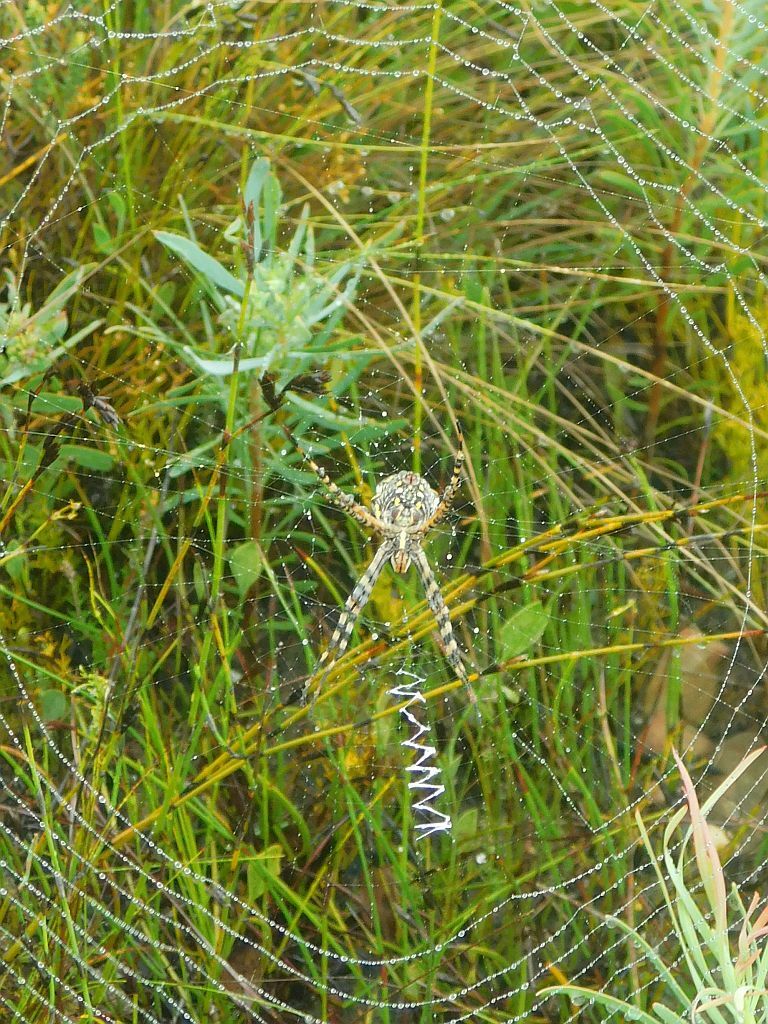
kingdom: Animalia
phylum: Arthropoda
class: Arachnida
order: Araneae
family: Araneidae
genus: Argiope
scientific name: Argiope australis
